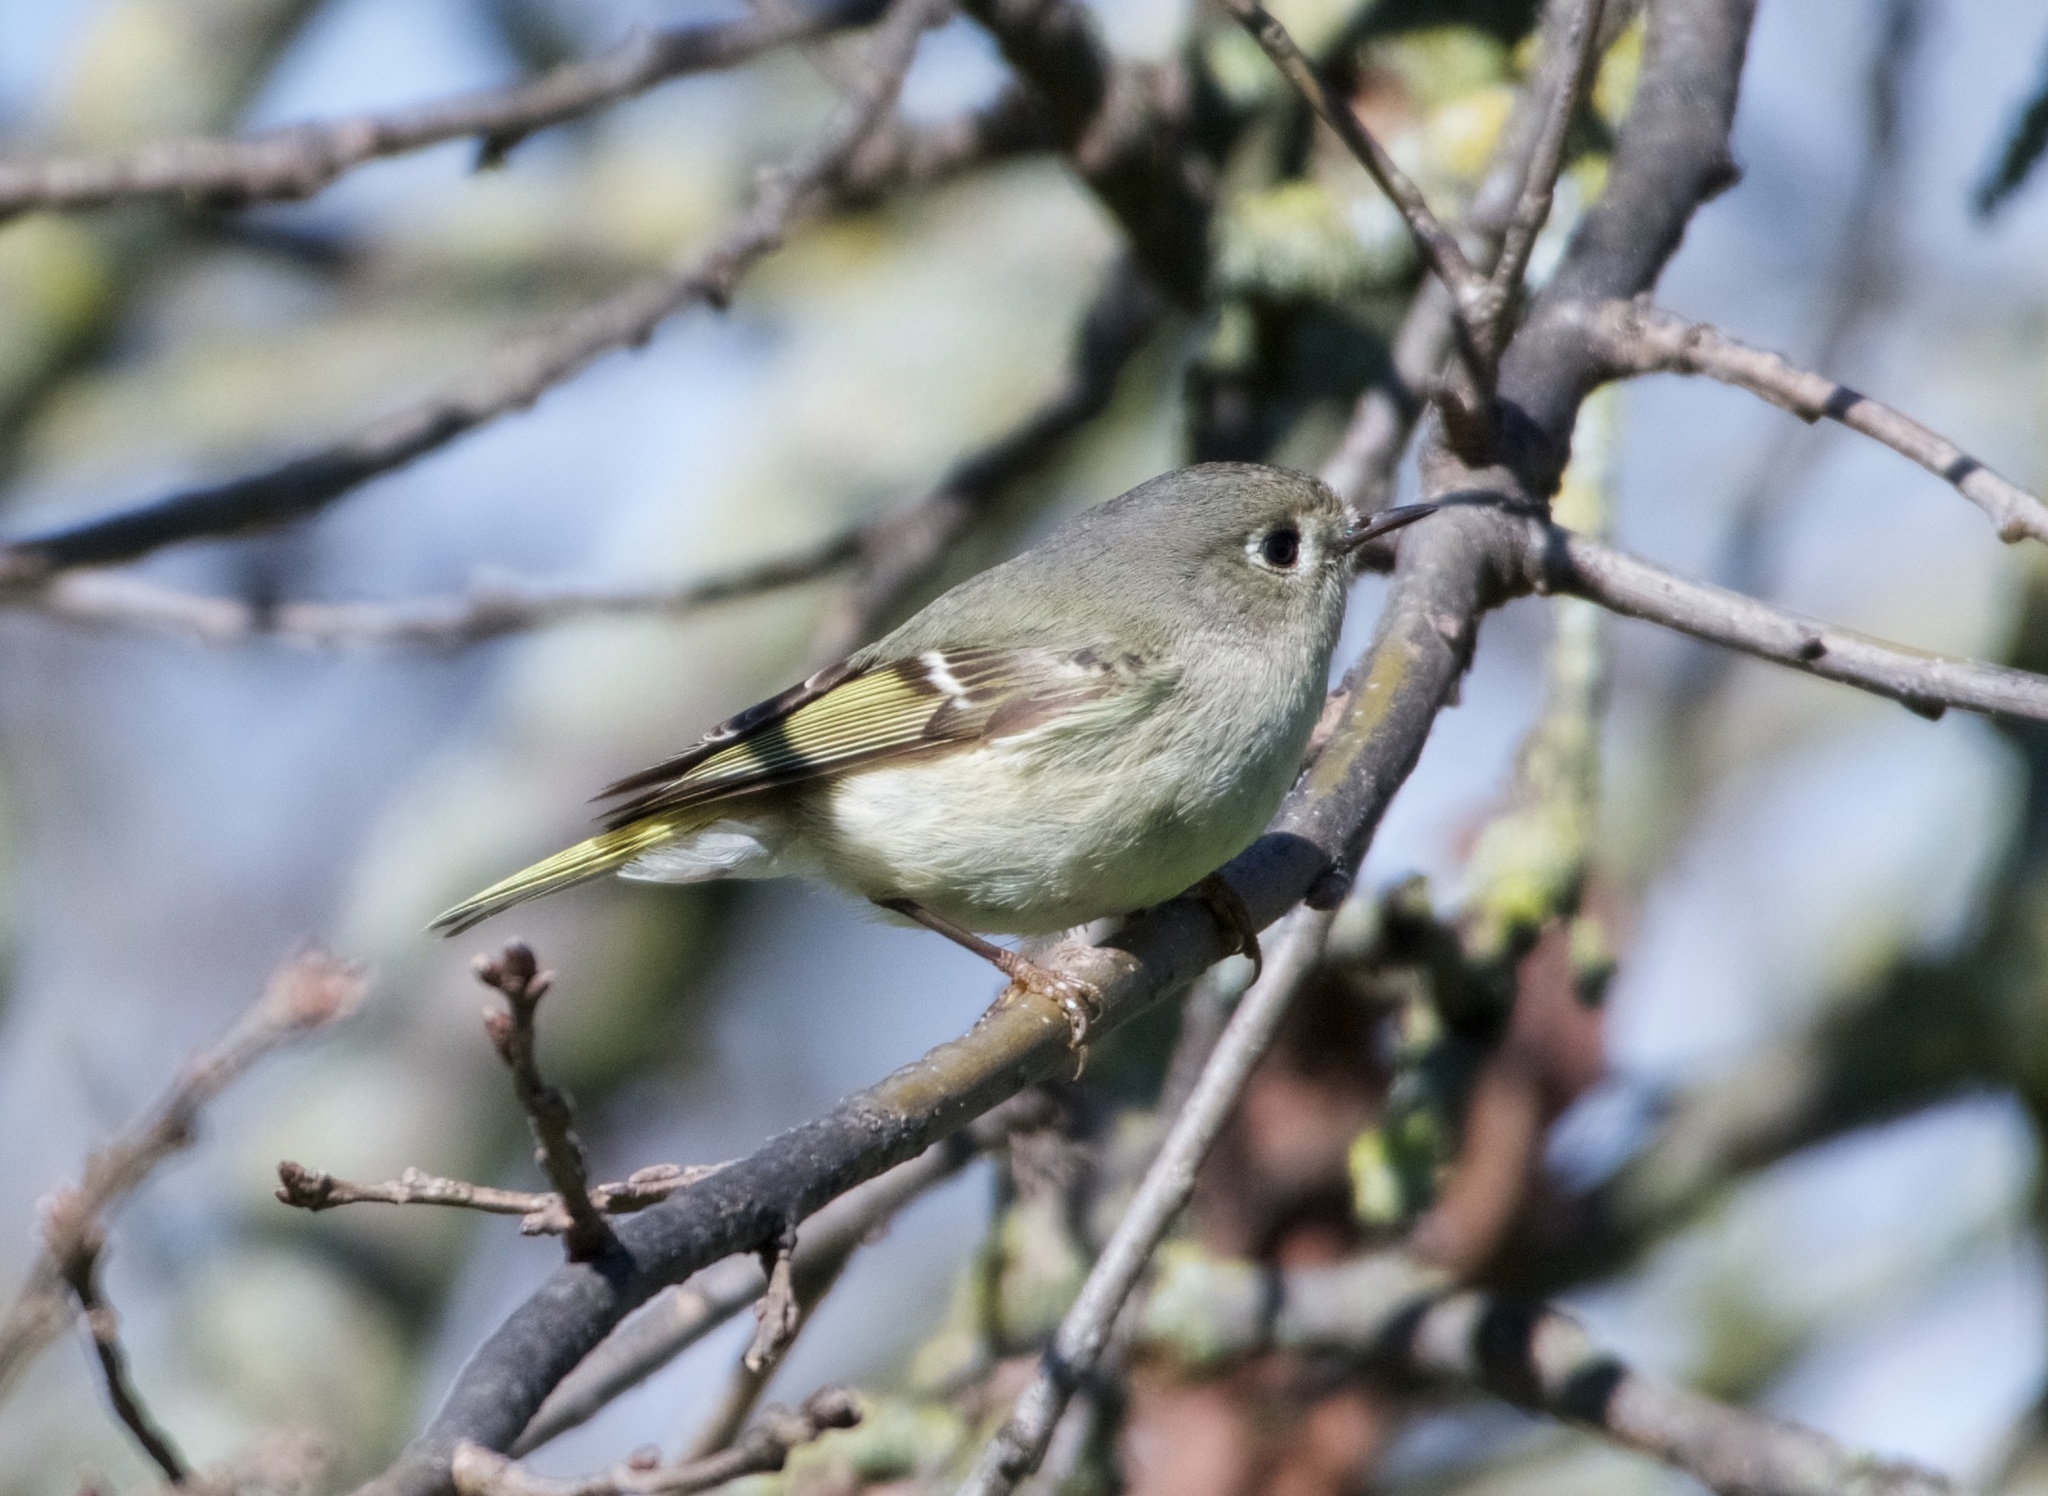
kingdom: Animalia
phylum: Chordata
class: Aves
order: Passeriformes
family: Regulidae
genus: Regulus
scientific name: Regulus calendula
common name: Ruby-crowned kinglet
